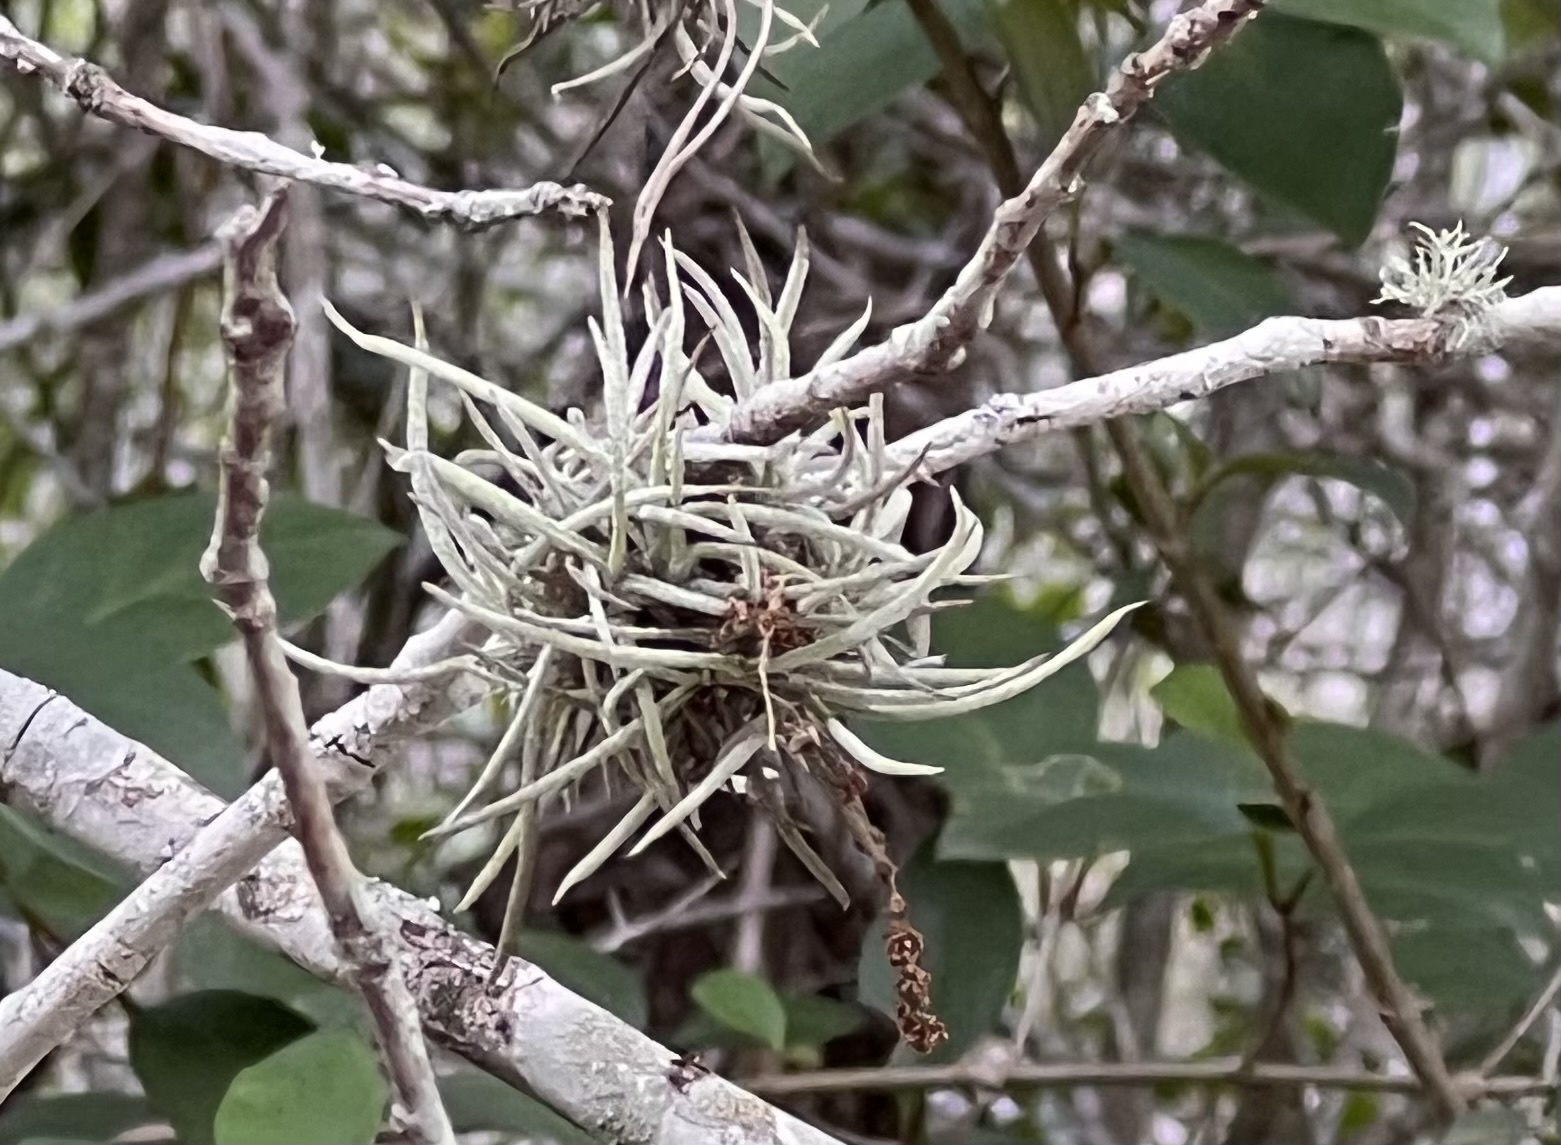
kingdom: Plantae
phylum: Tracheophyta
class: Liliopsida
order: Poales
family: Bromeliaceae
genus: Tillandsia
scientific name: Tillandsia recurvata
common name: Small ballmoss
